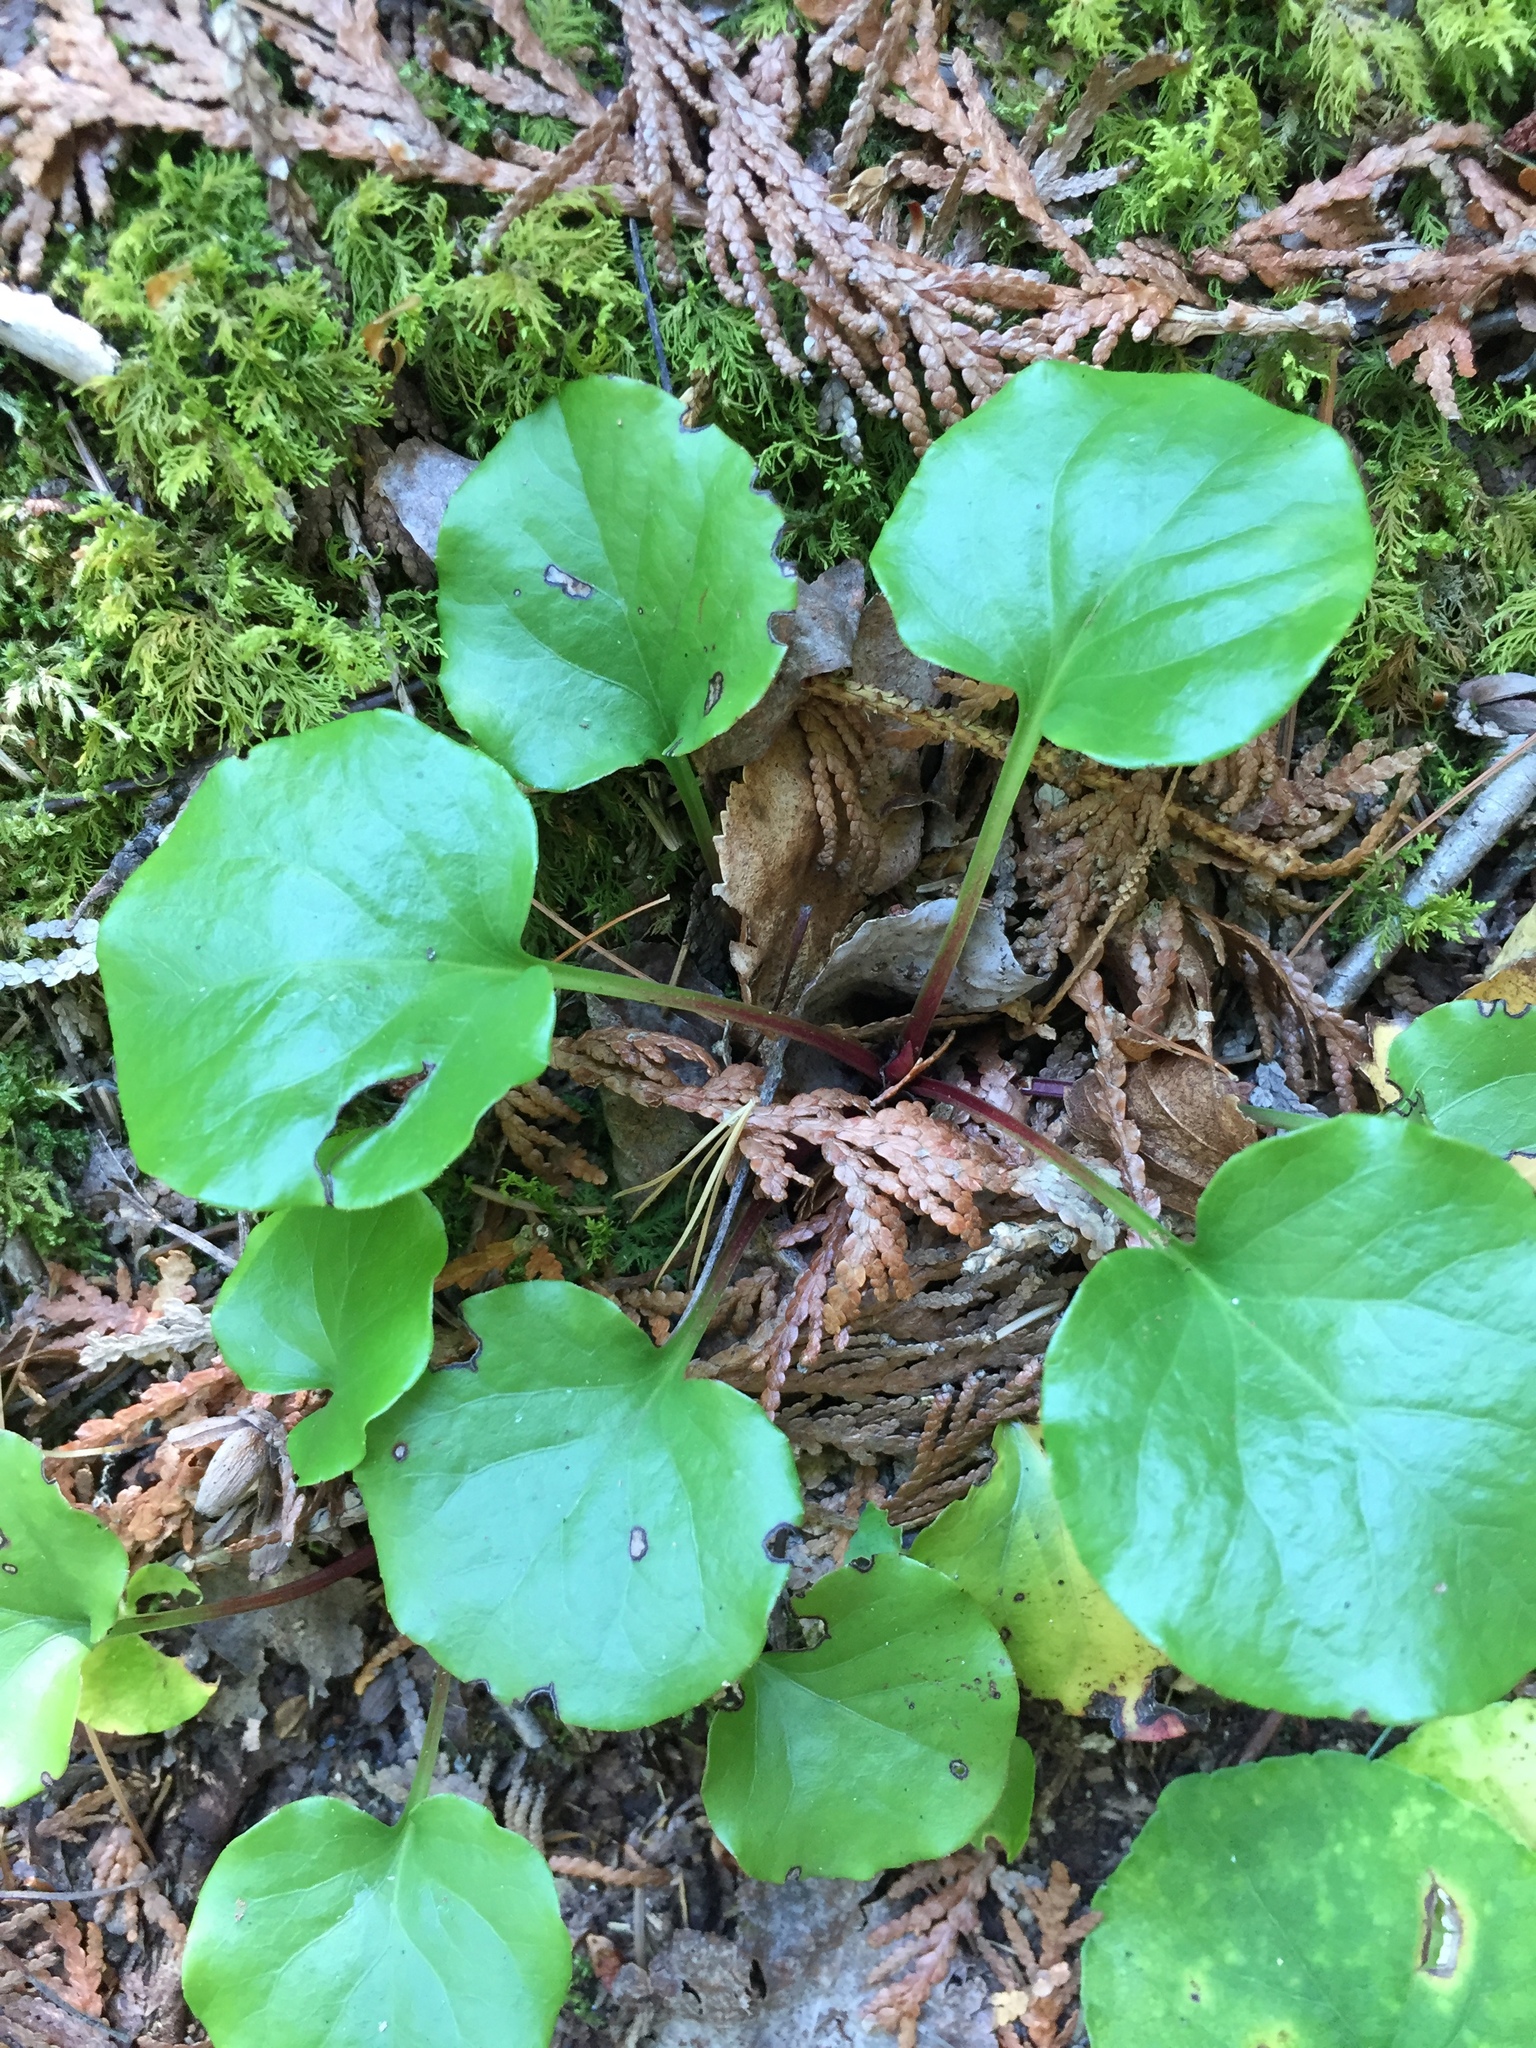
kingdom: Plantae
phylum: Tracheophyta
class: Magnoliopsida
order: Ericales
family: Ericaceae
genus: Pyrola
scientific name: Pyrola asarifolia
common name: Bog wintergreen
